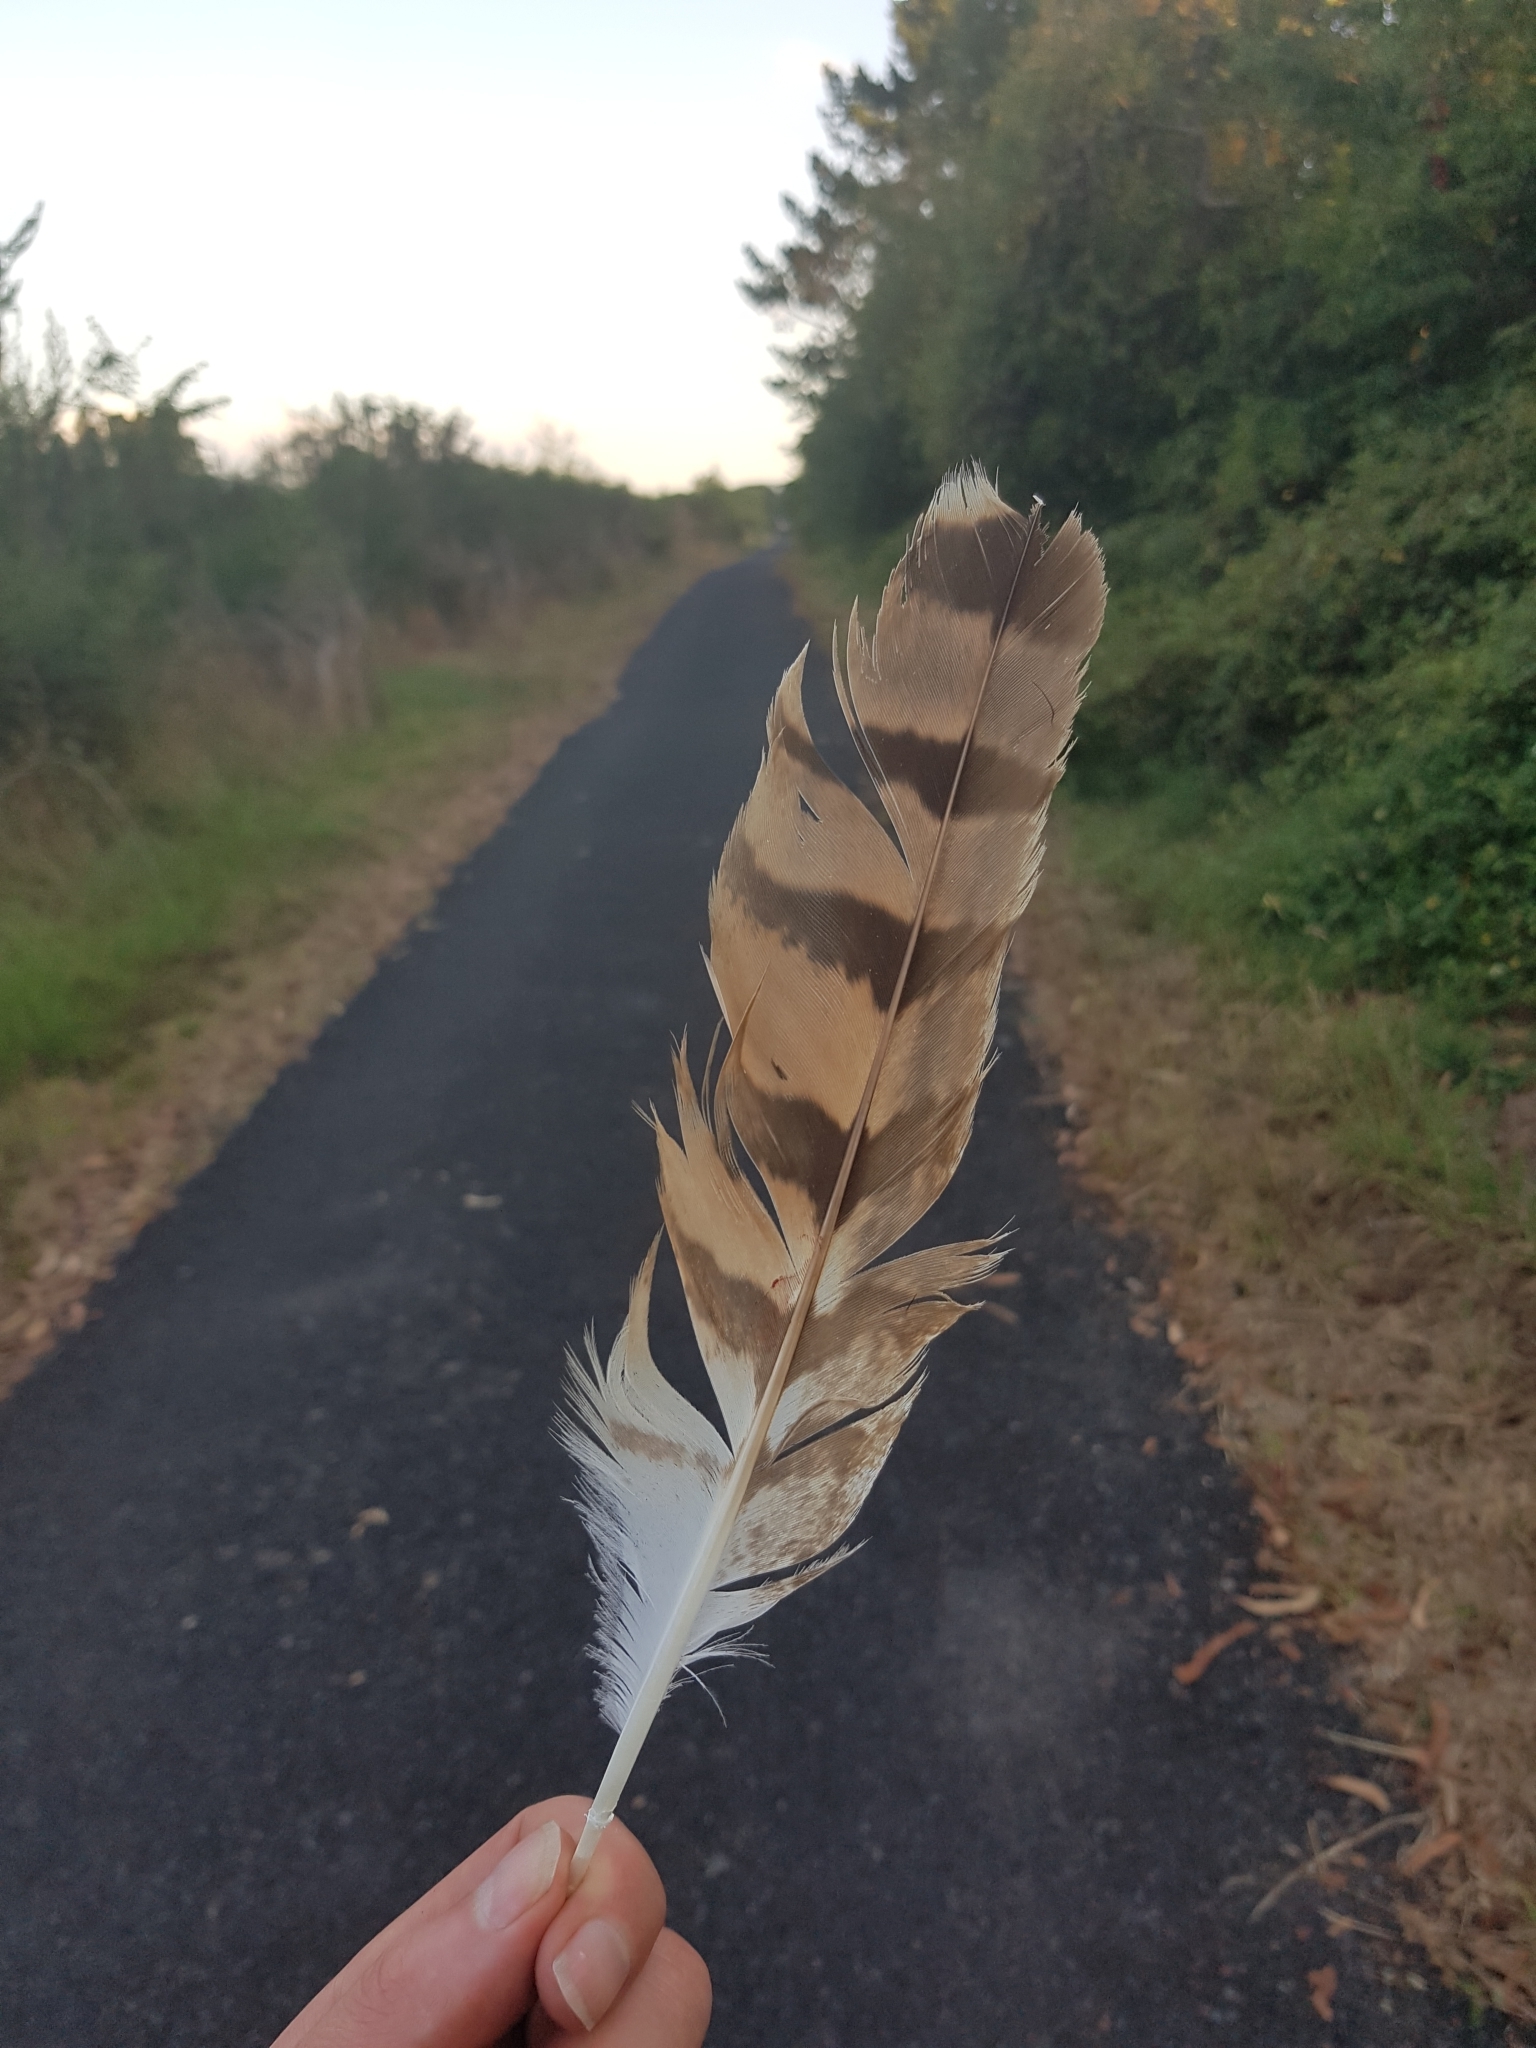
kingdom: Animalia
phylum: Chordata
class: Aves
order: Accipitriformes
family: Accipitridae
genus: Circus
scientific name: Circus approximans
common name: Swamp harrier
